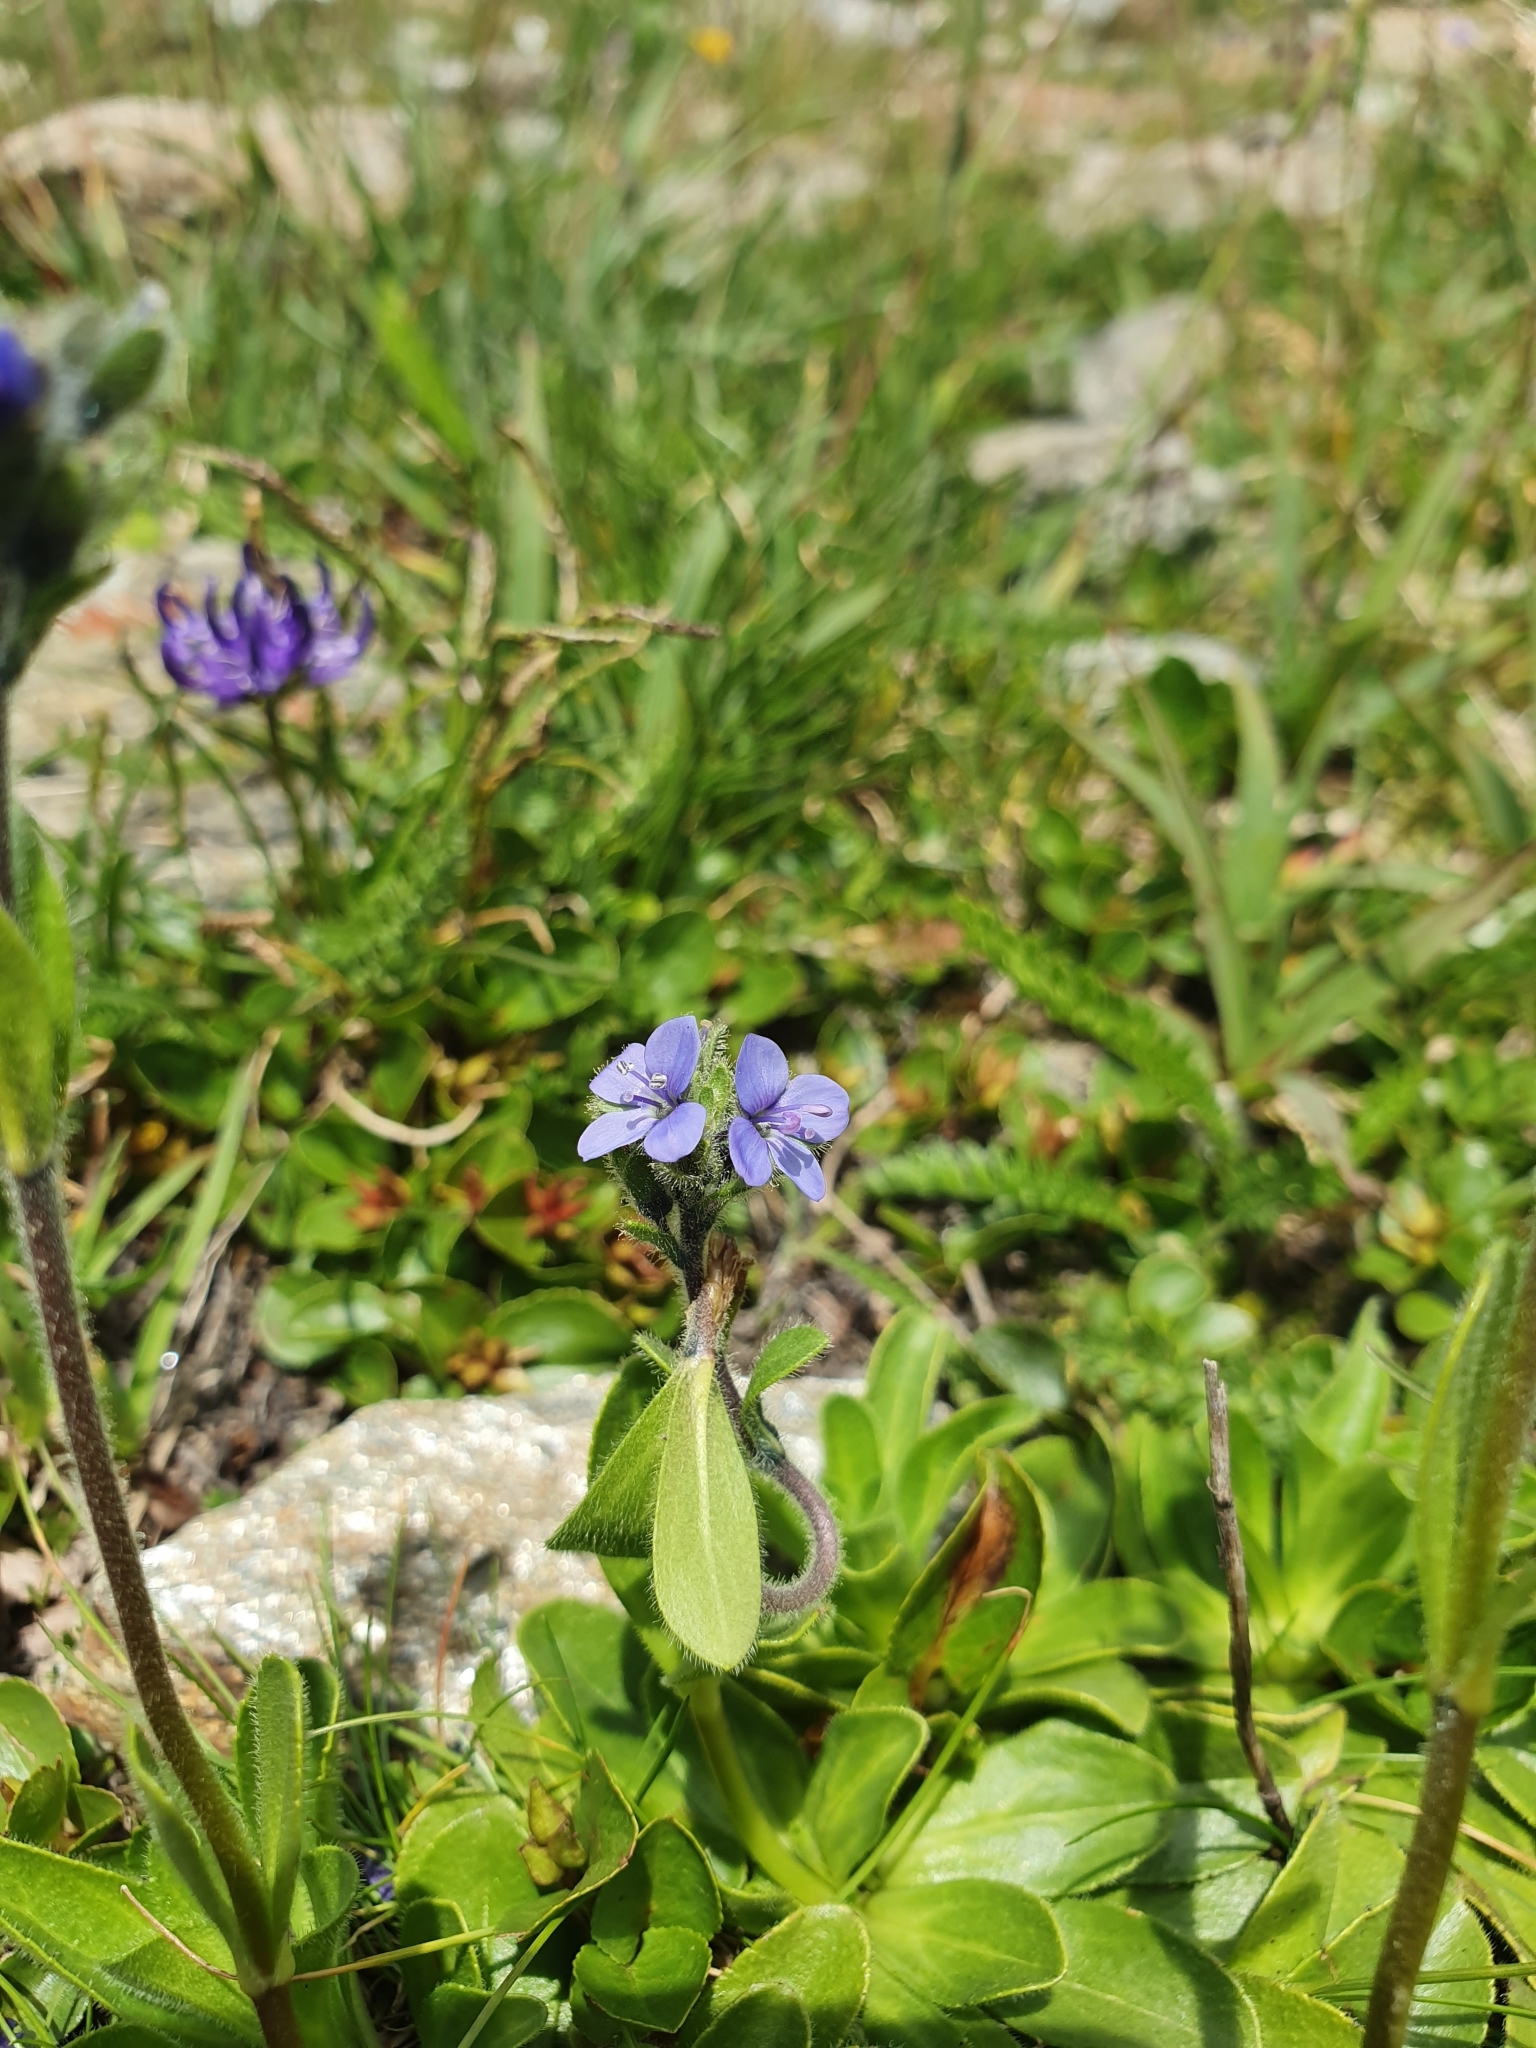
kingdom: Plantae
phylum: Tracheophyta
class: Magnoliopsida
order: Lamiales
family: Plantaginaceae
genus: Veronica
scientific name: Veronica bellidioides
